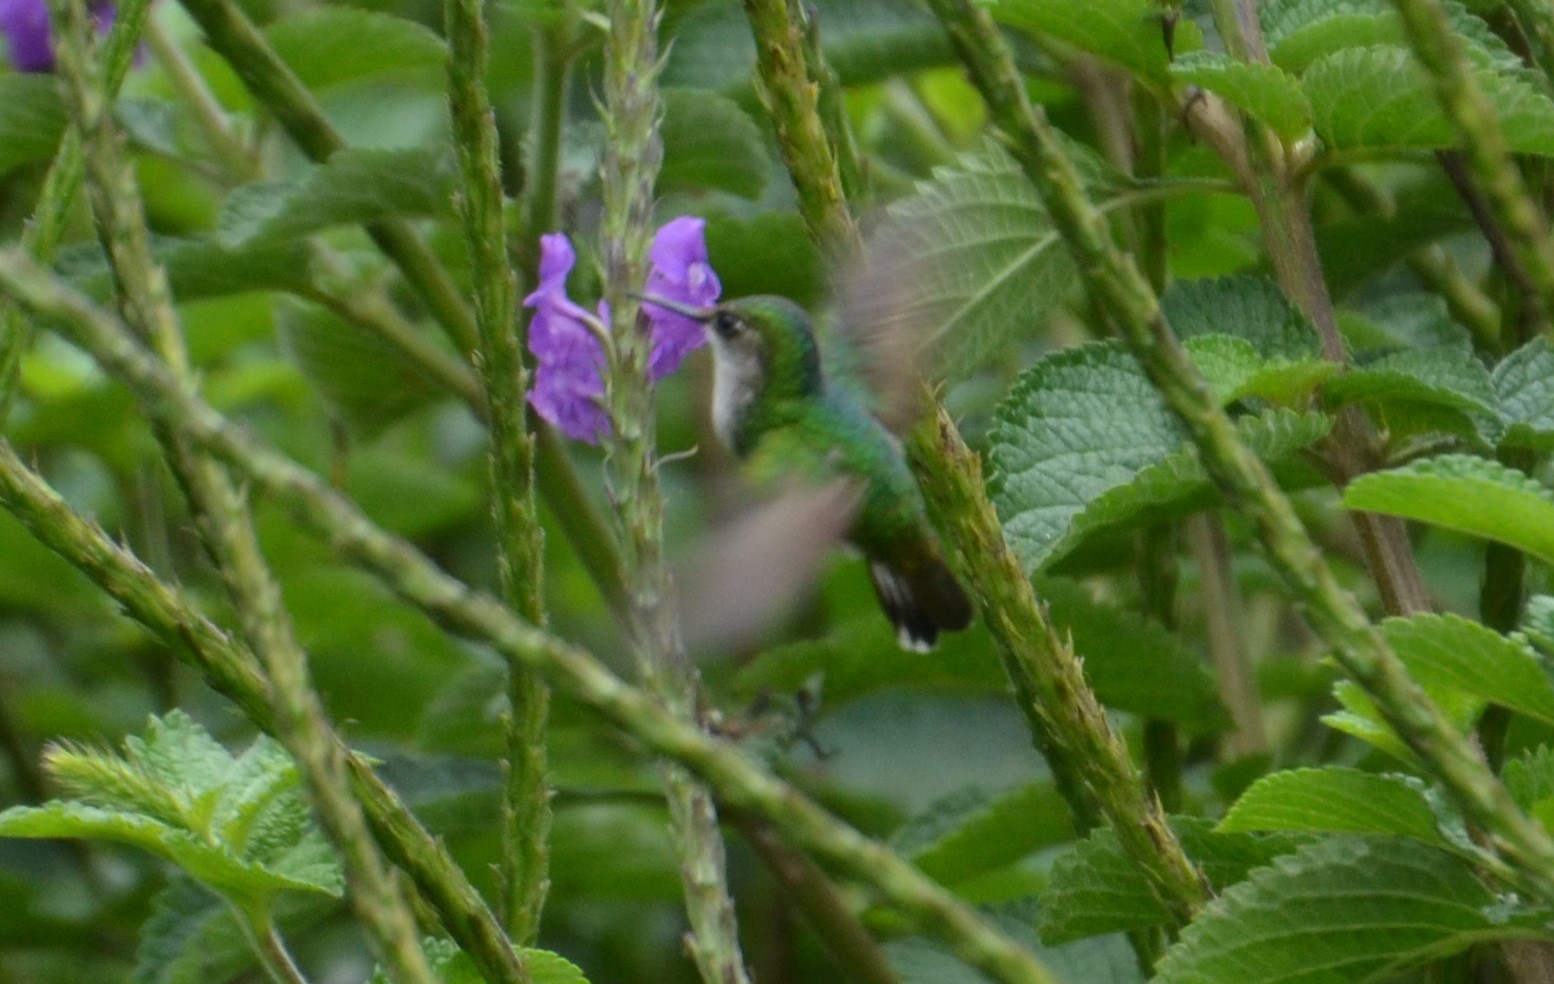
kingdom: Animalia
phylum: Chordata
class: Aves
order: Apodiformes
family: Trochilidae
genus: Chlorostilbon
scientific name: Chlorostilbon assimilis
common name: Garden emerald
